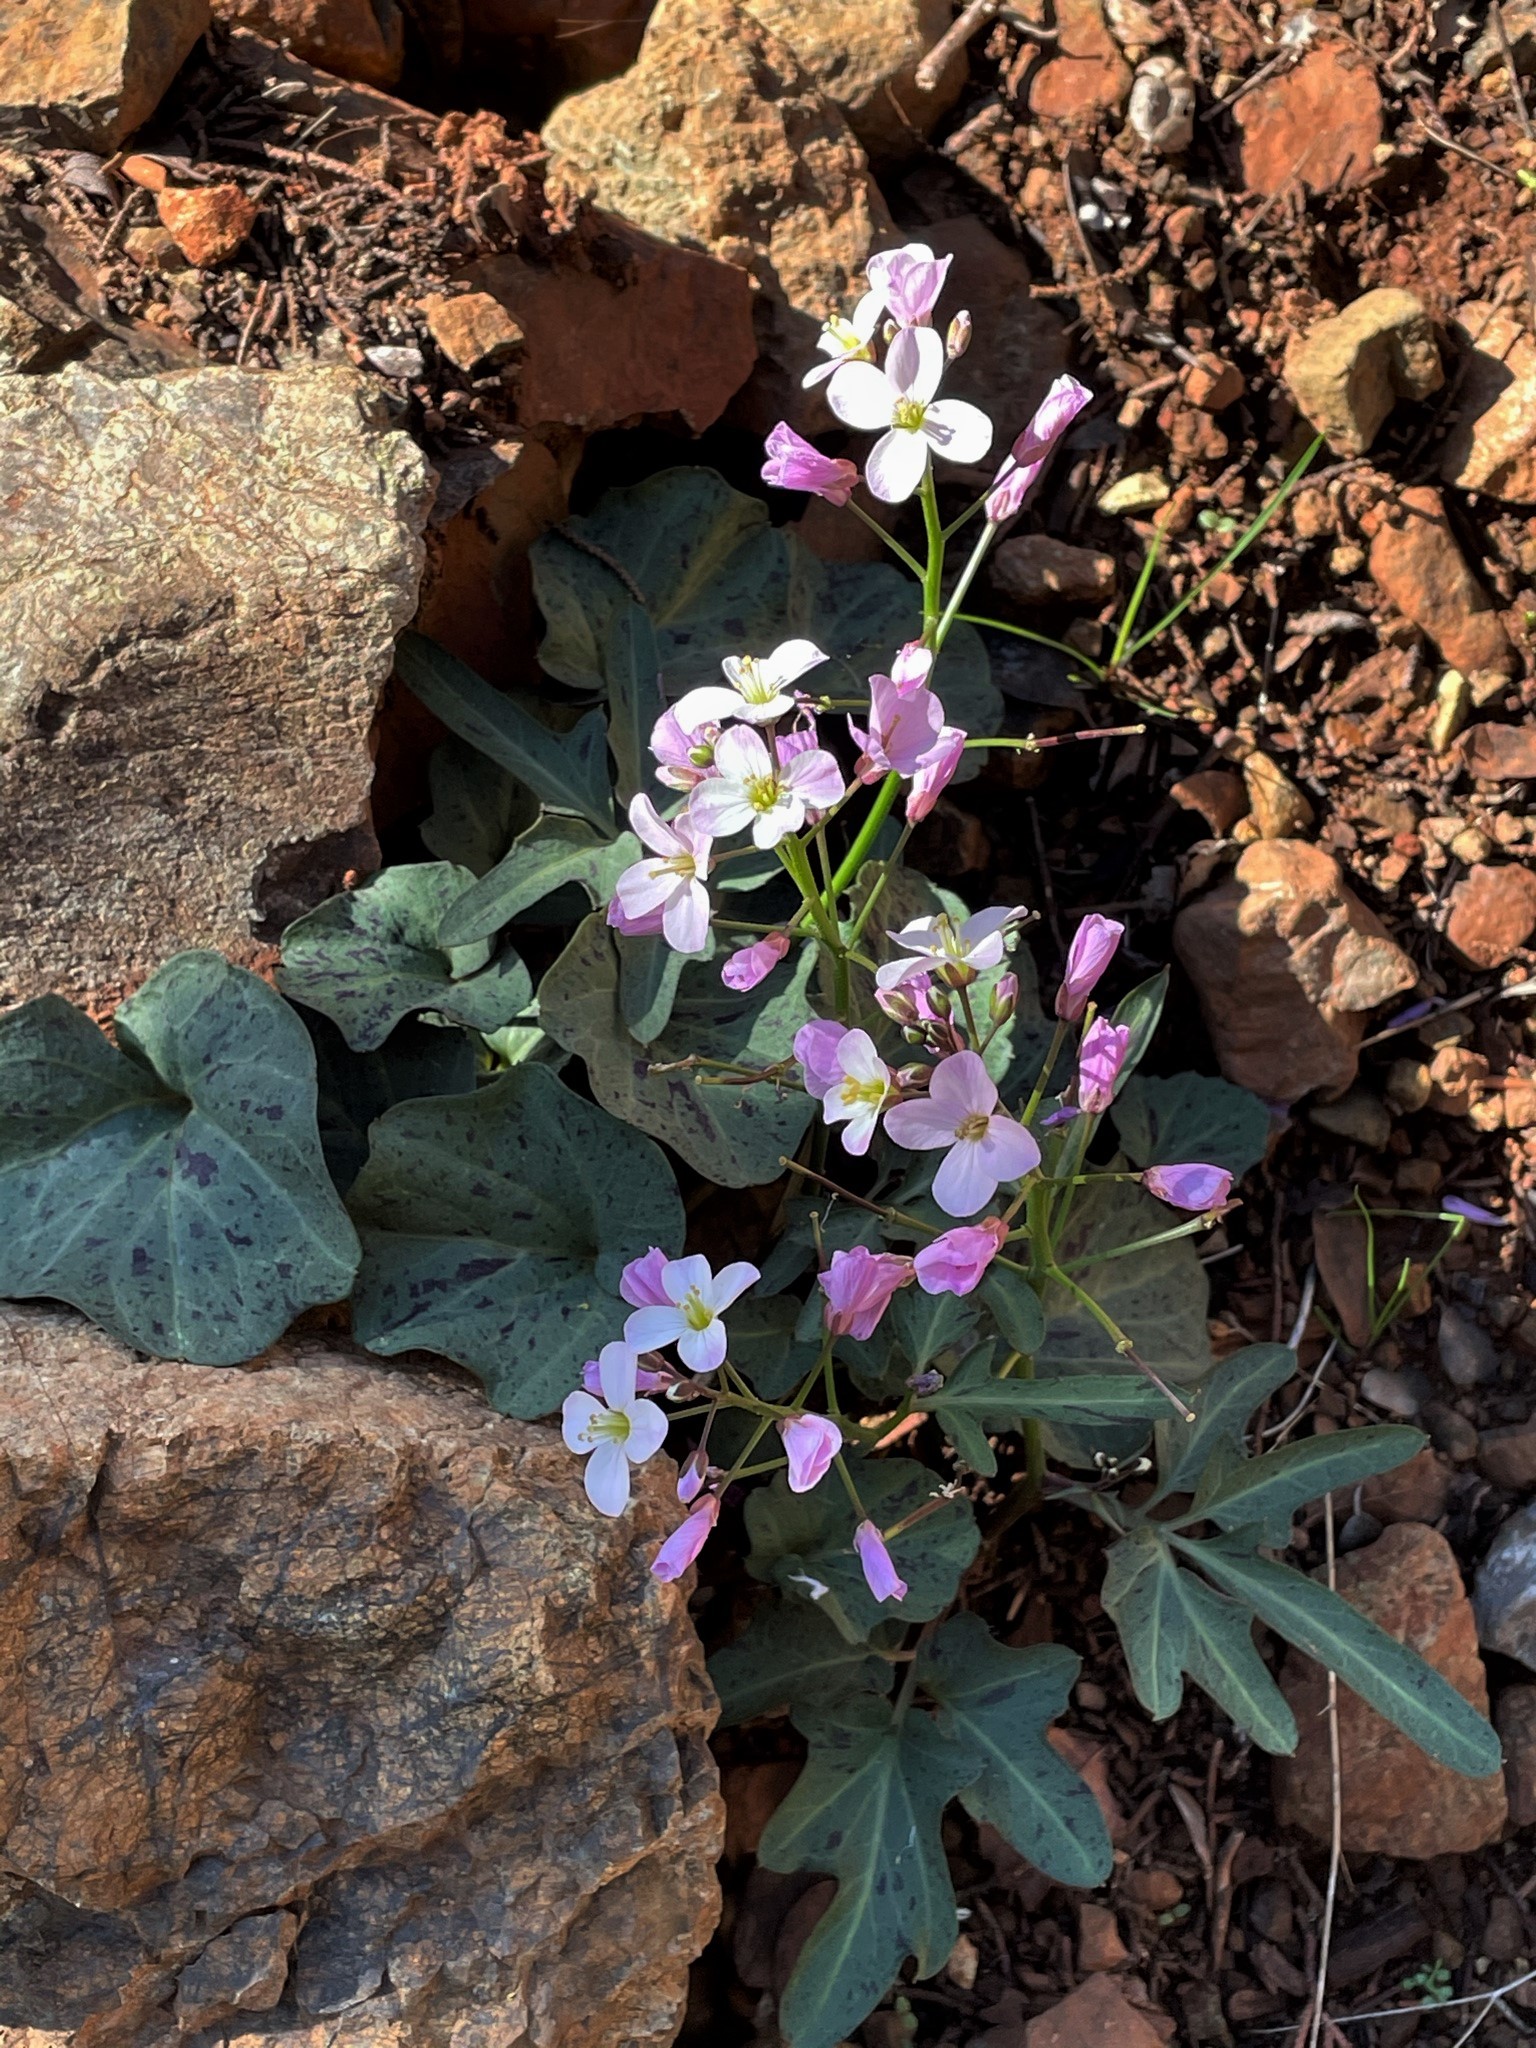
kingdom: Plantae
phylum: Tracheophyta
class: Magnoliopsida
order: Brassicales
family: Brassicaceae
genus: Cardamine
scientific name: Cardamine californica
